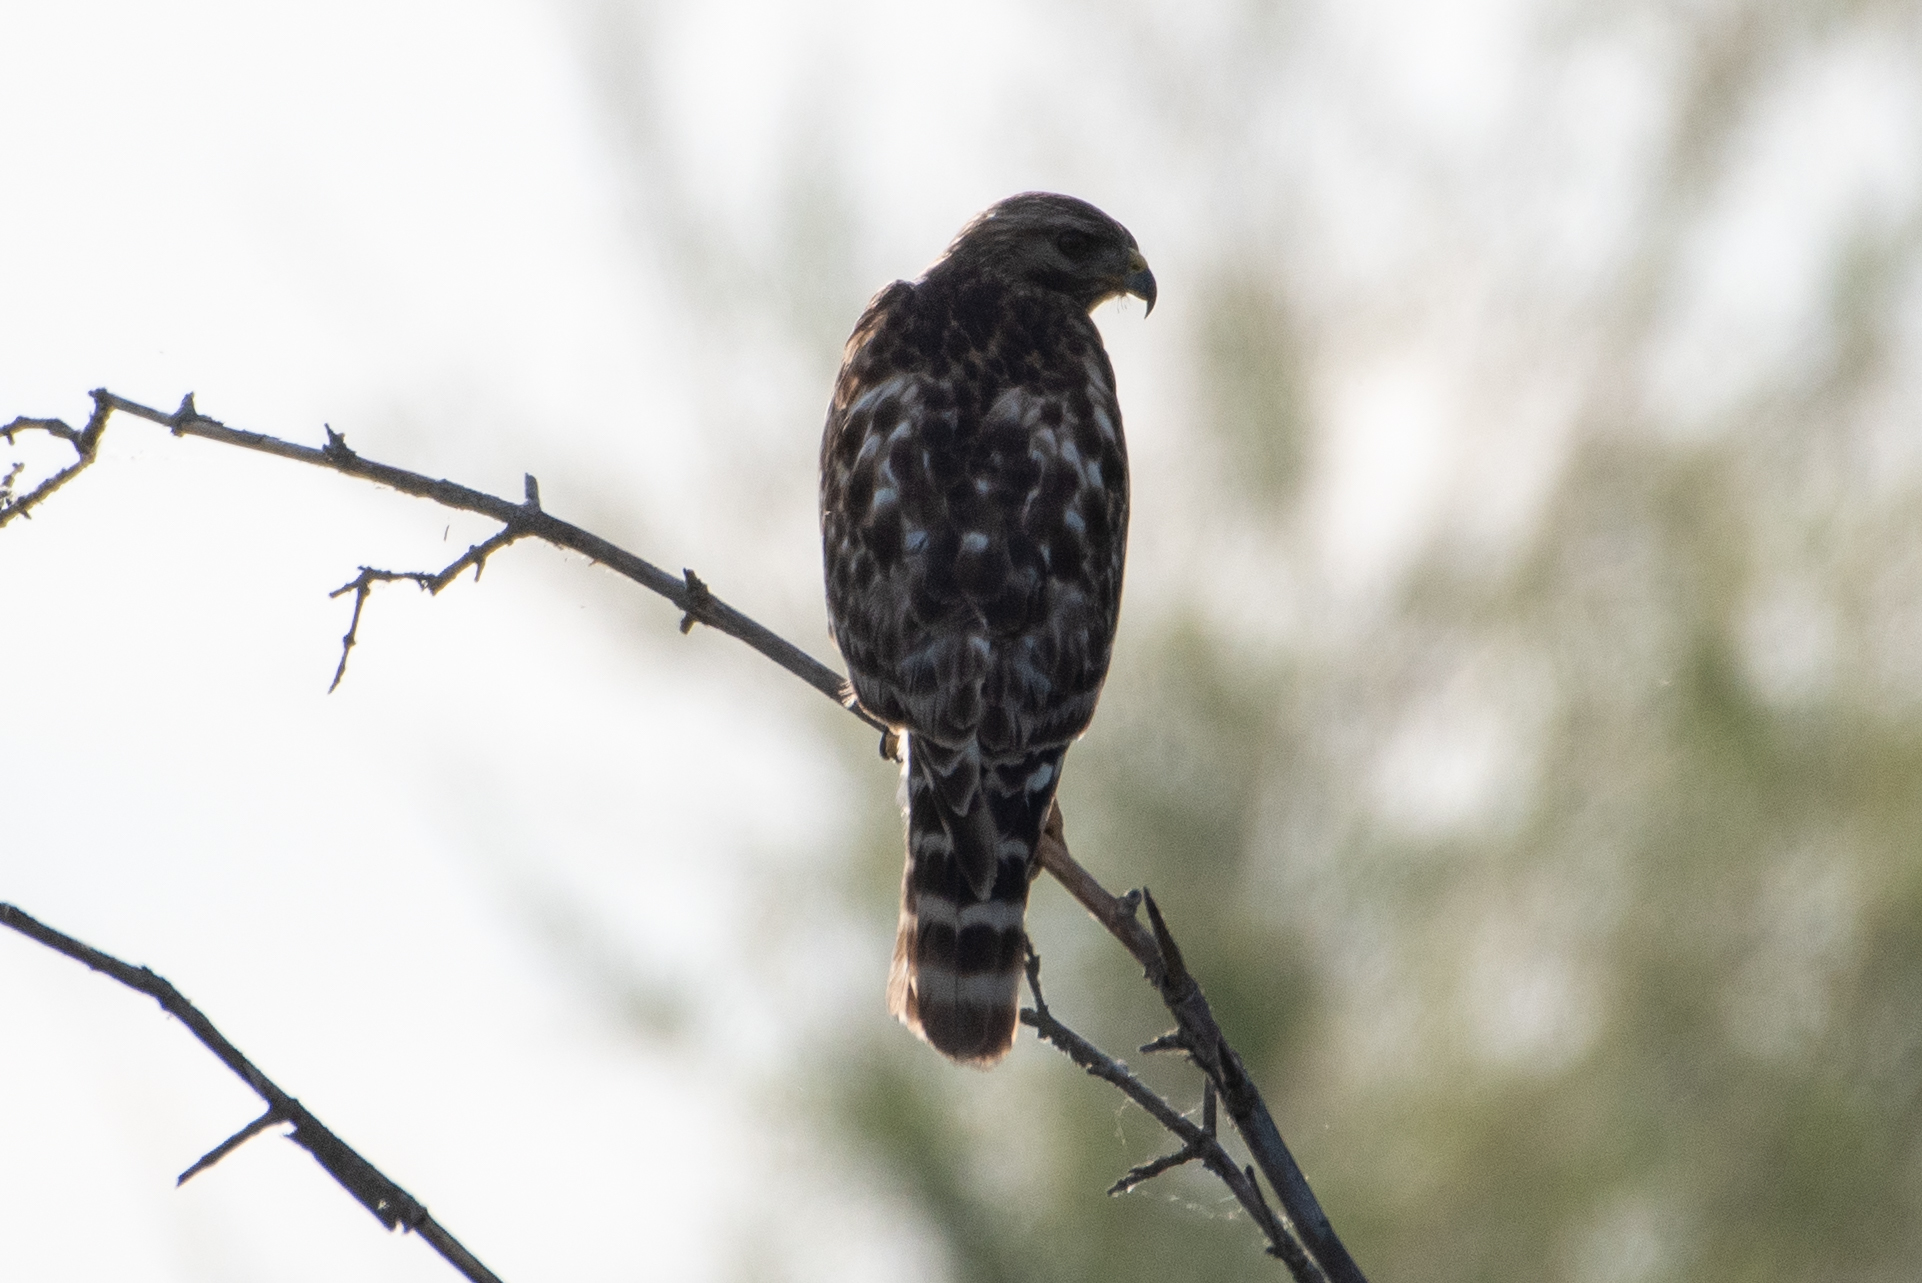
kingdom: Animalia
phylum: Chordata
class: Aves
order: Accipitriformes
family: Accipitridae
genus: Buteo
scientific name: Buteo lineatus
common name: Red-shouldered hawk
